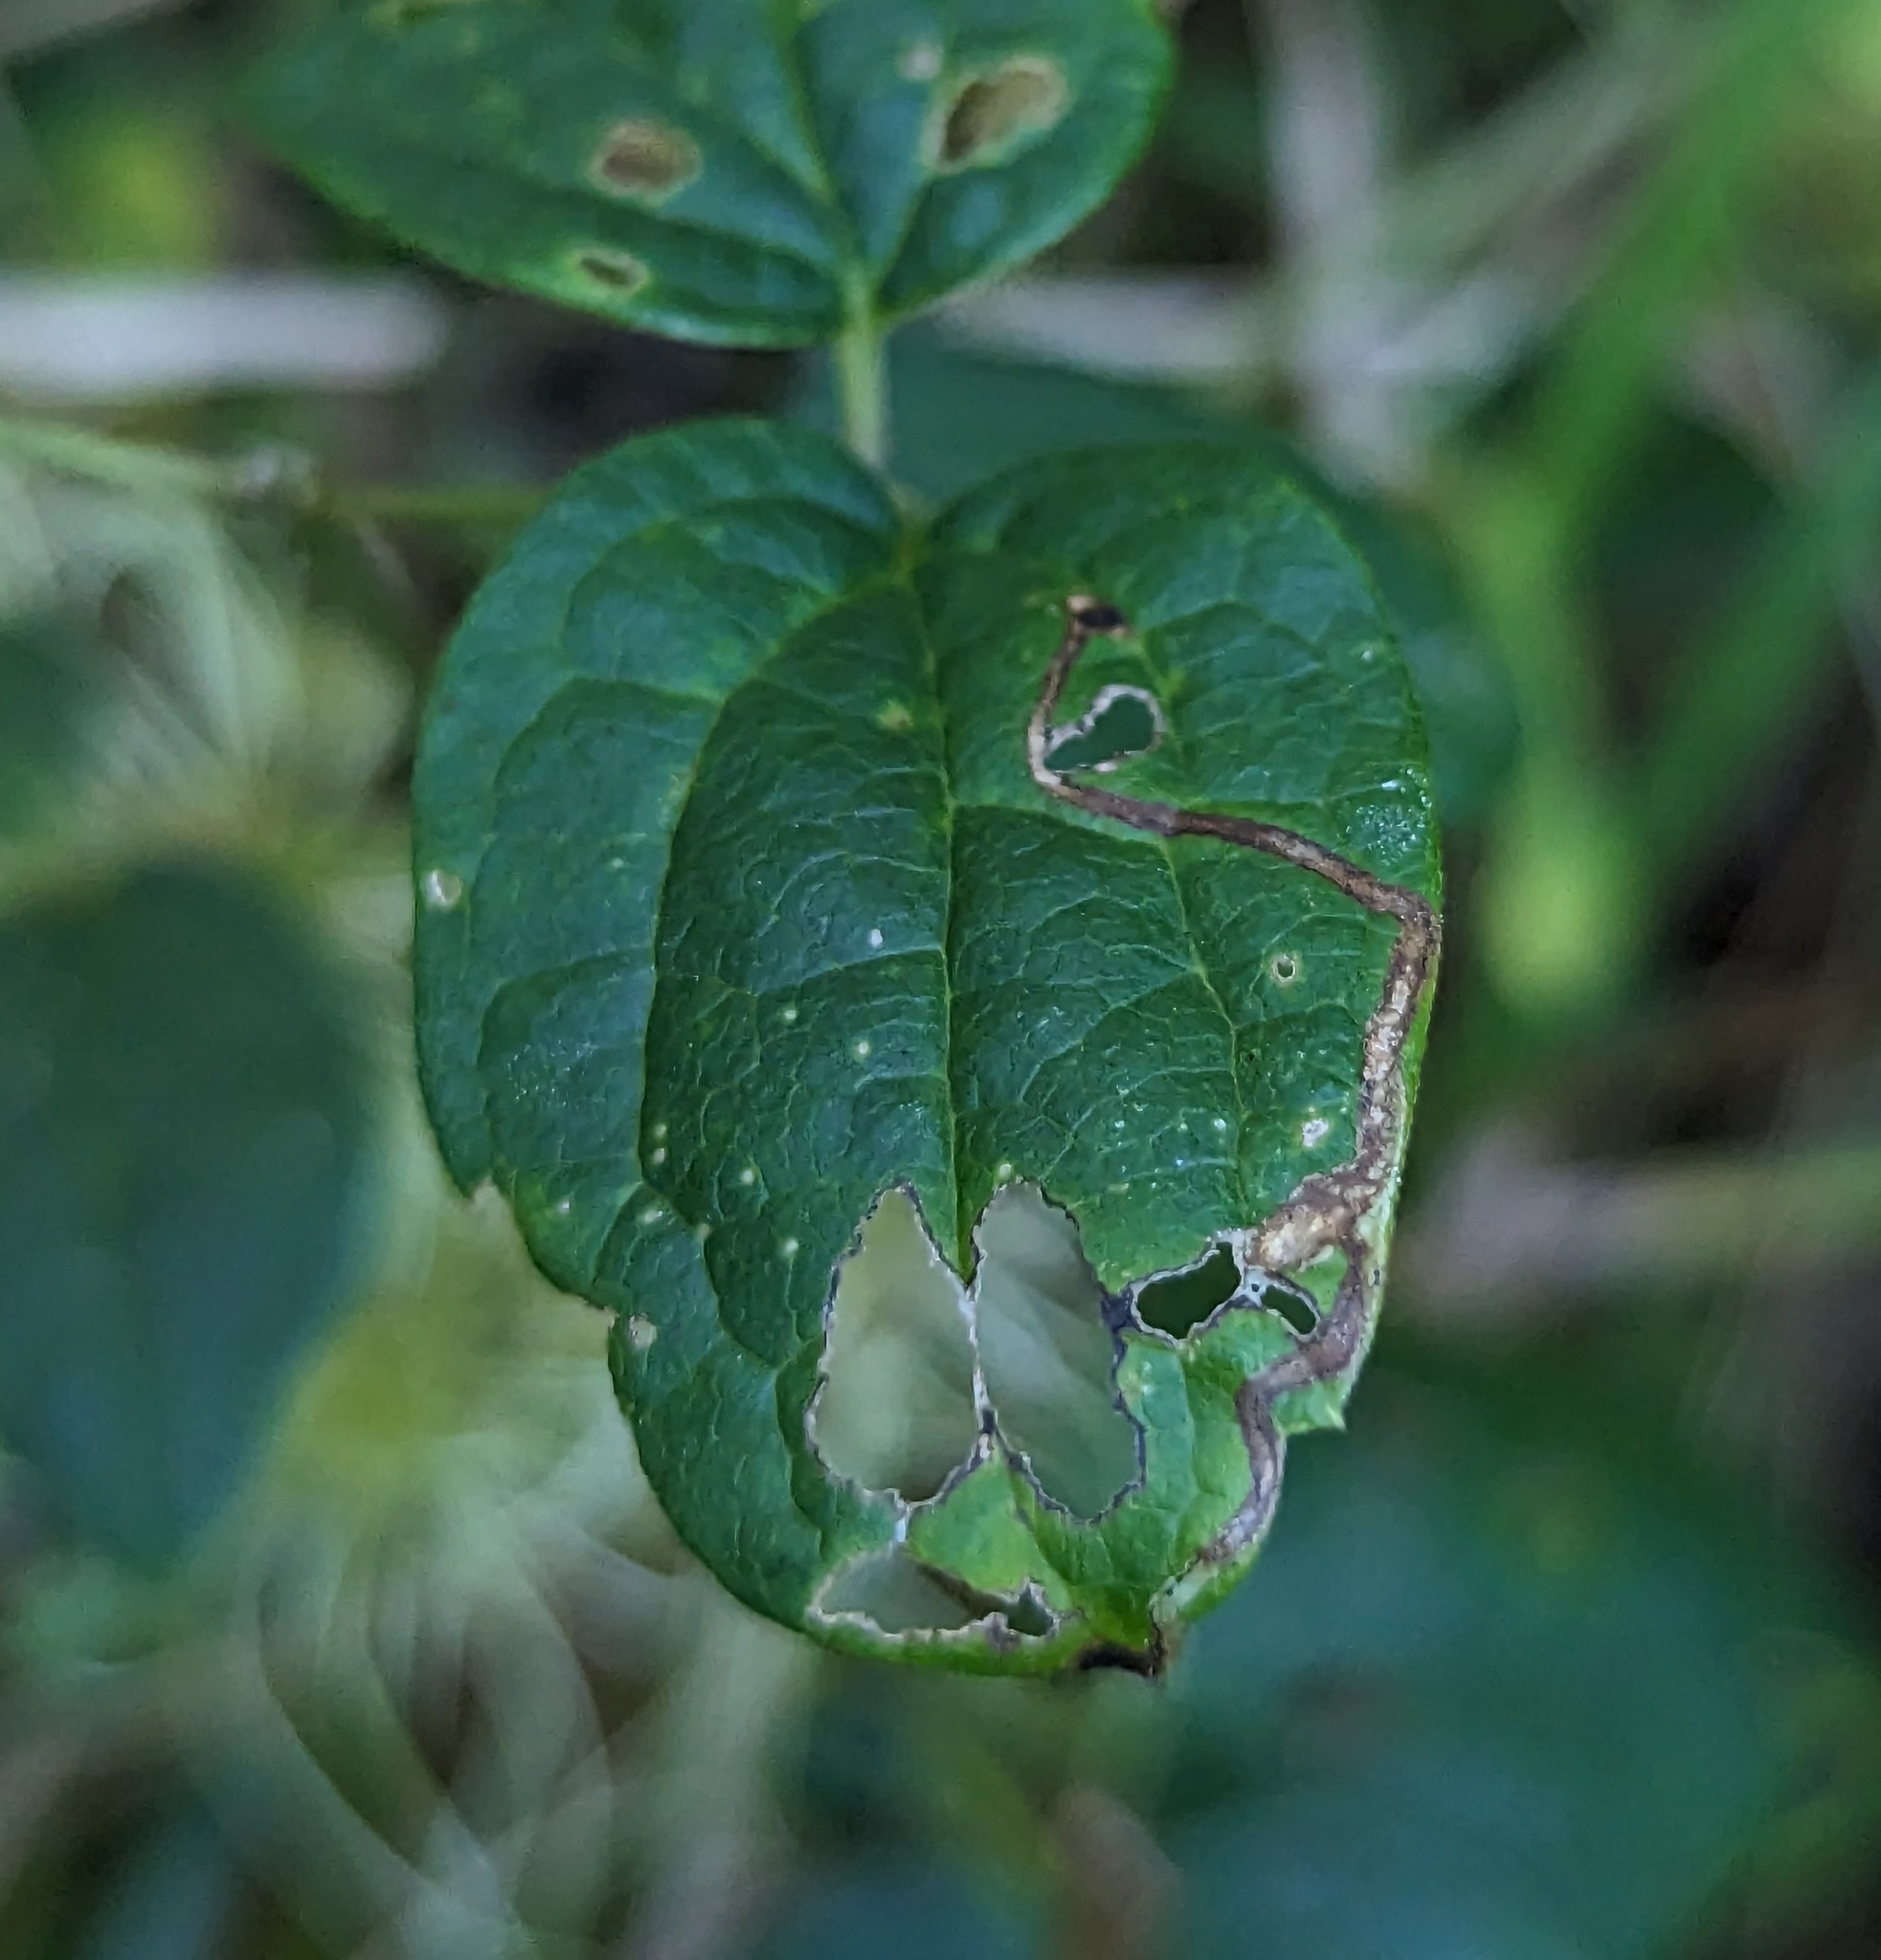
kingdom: Animalia
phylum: Arthropoda
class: Insecta
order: Diptera
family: Agromyzidae
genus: Phytomyza
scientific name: Phytomyza loewii
